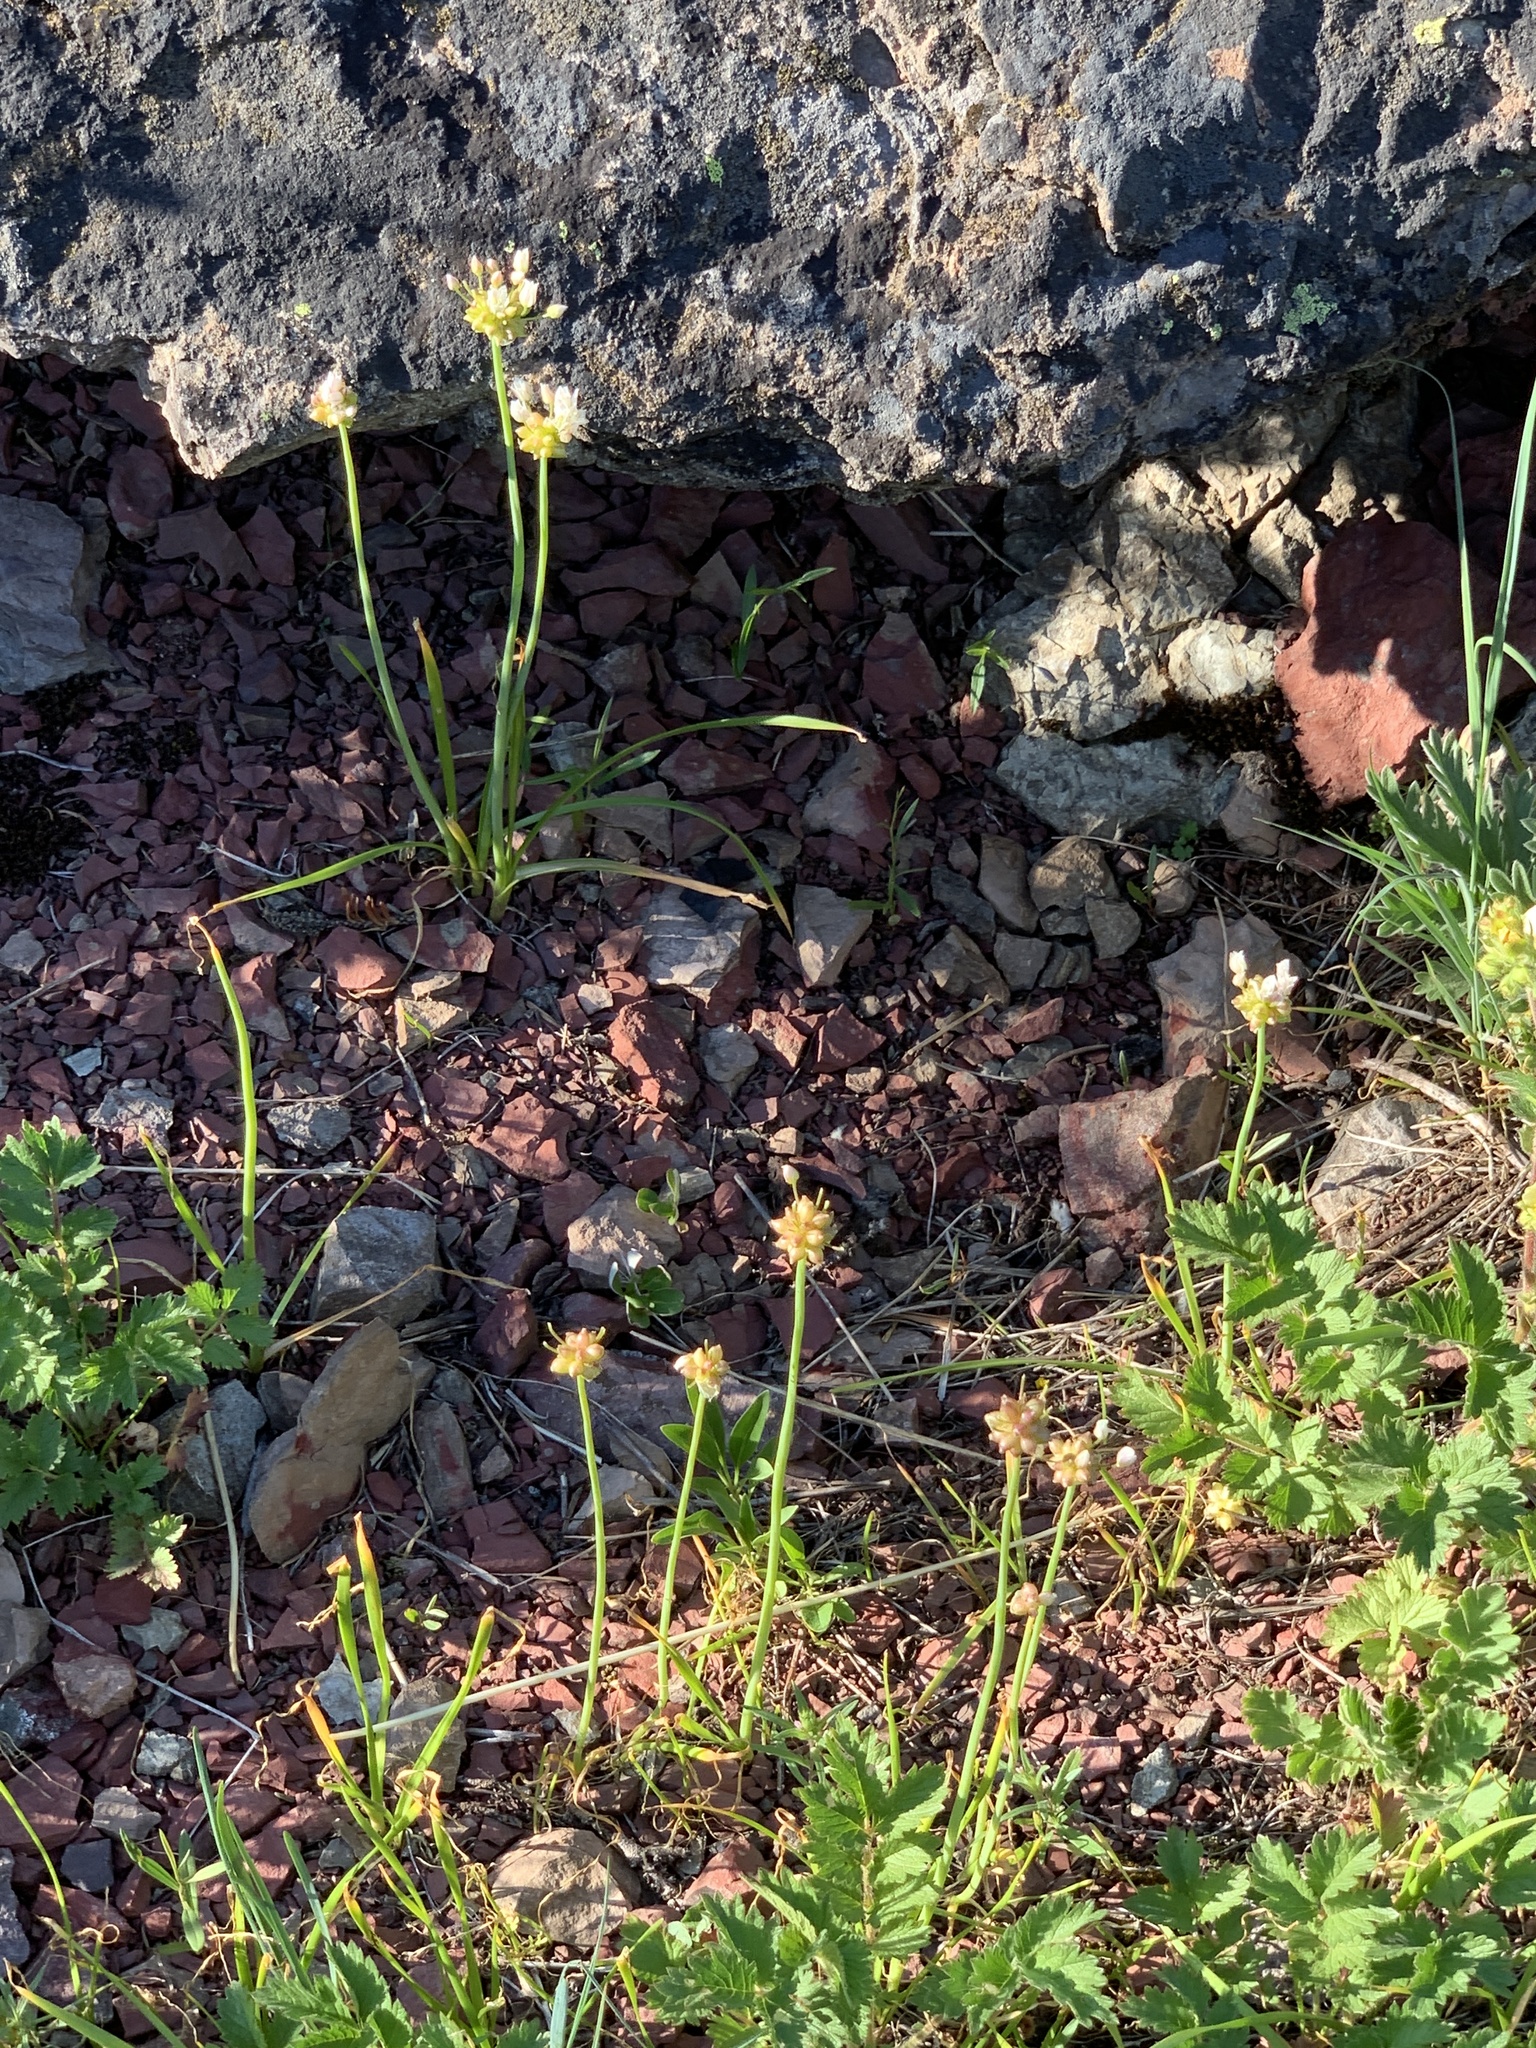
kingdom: Plantae
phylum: Tracheophyta
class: Liliopsida
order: Asparagales
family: Amaryllidaceae
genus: Allium
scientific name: Allium geyeri
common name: Geyer's onion
